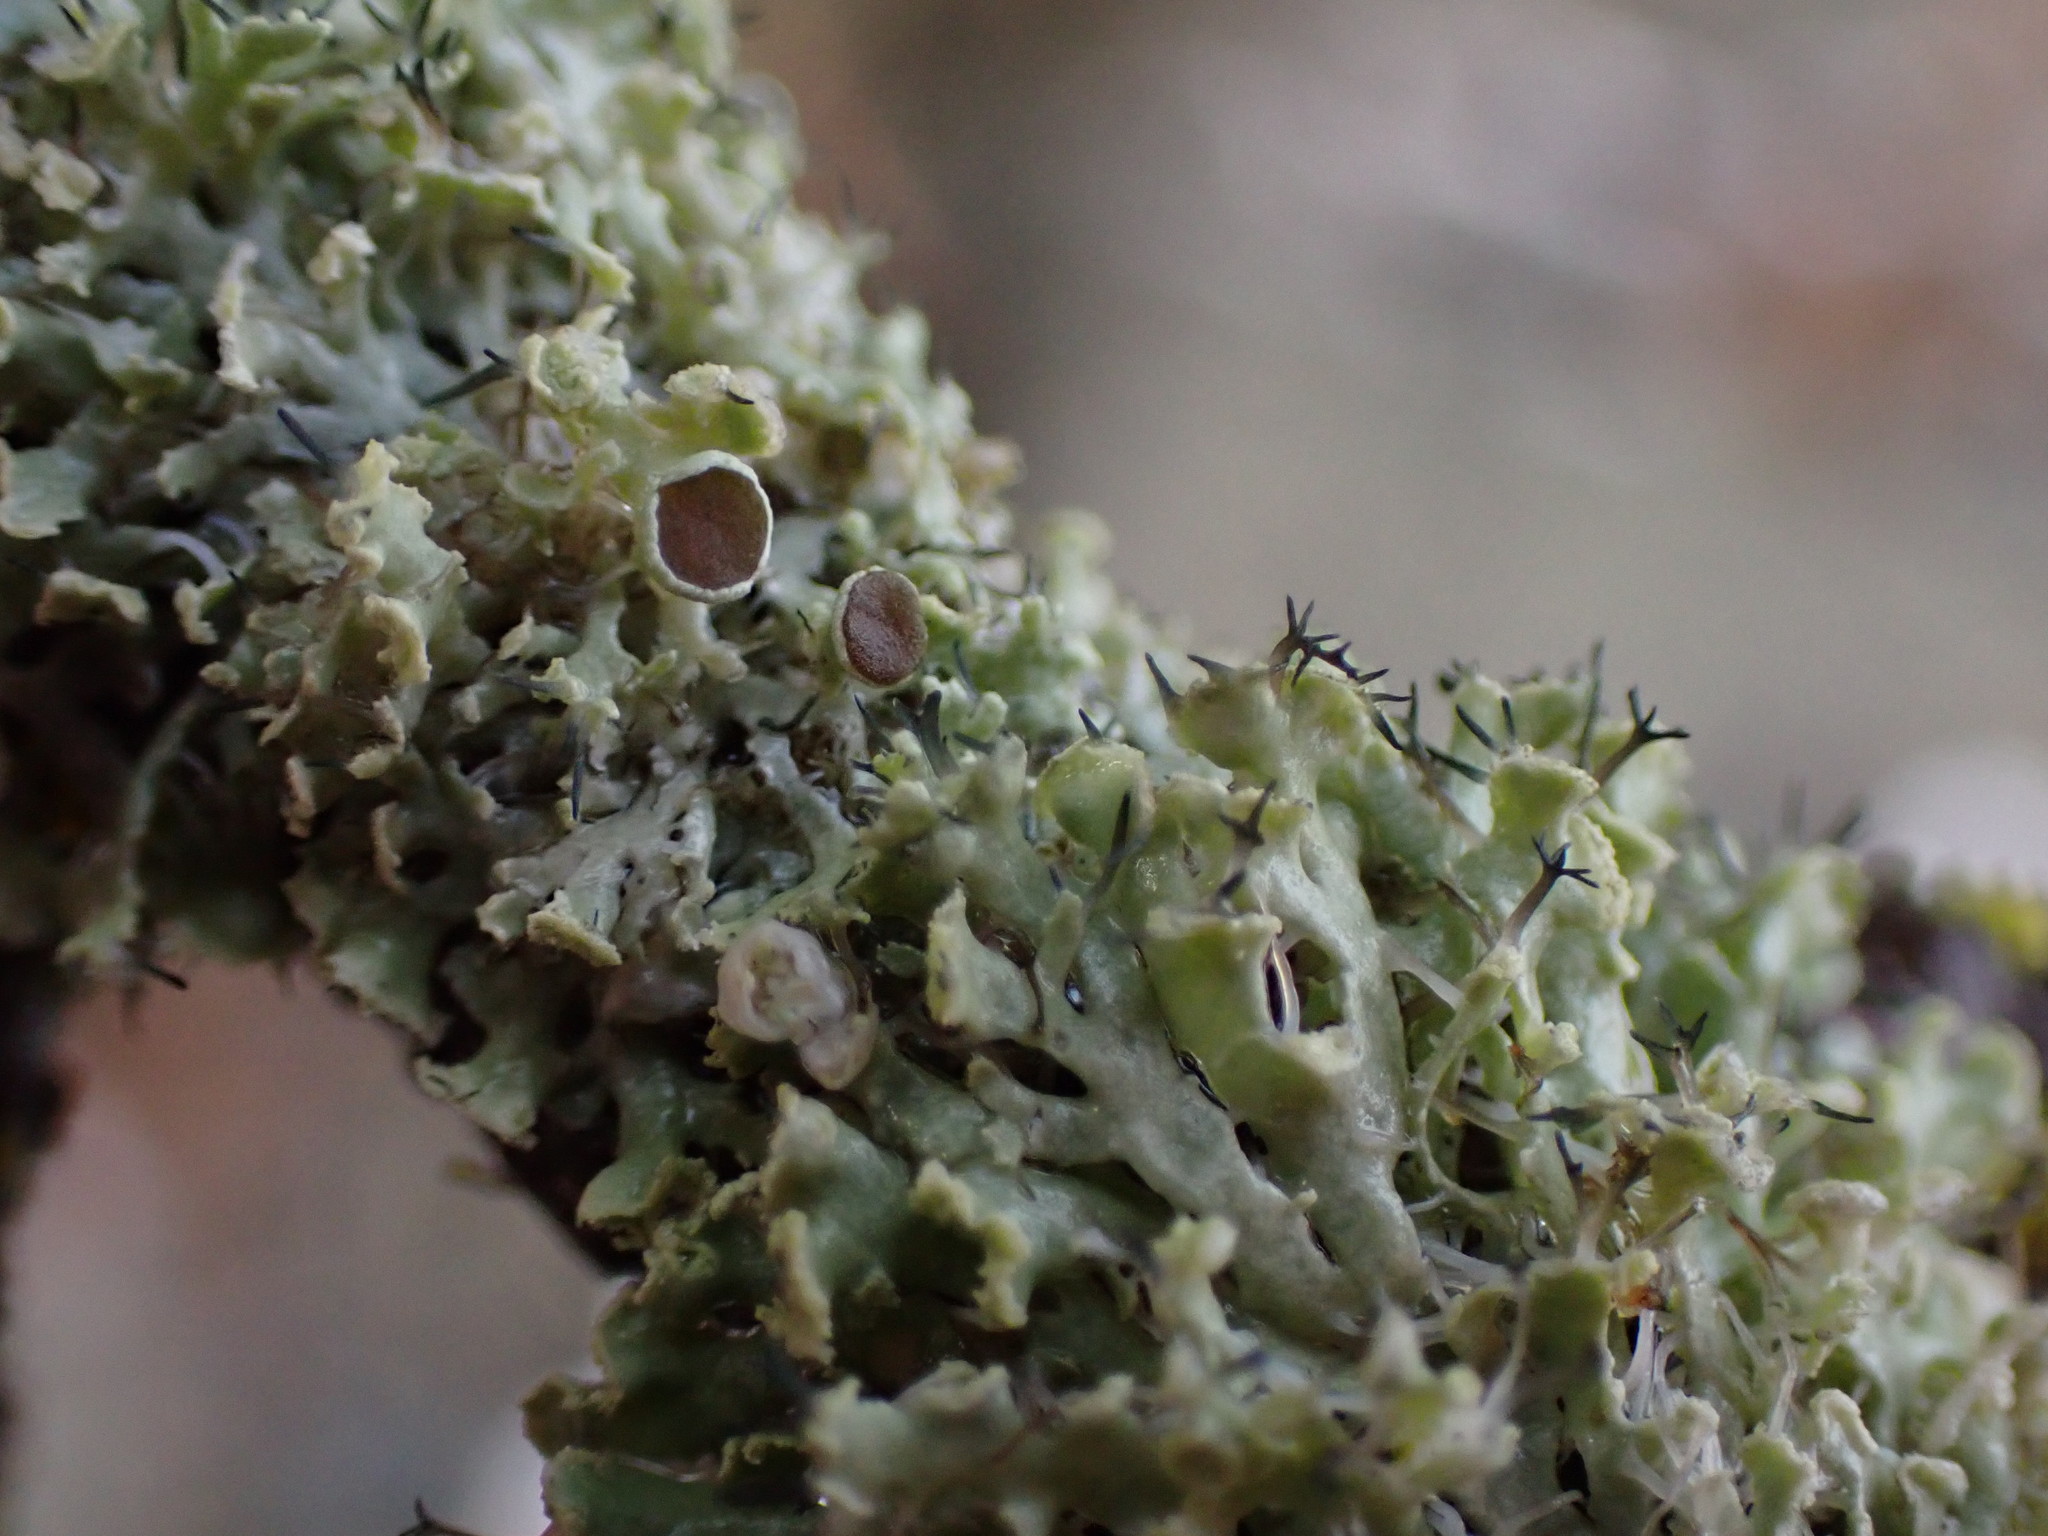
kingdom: Fungi
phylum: Ascomycota
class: Lecanoromycetes
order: Caliciales
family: Physciaceae
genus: Physcia
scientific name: Physcia tenella
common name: Fringed rosette lichen
